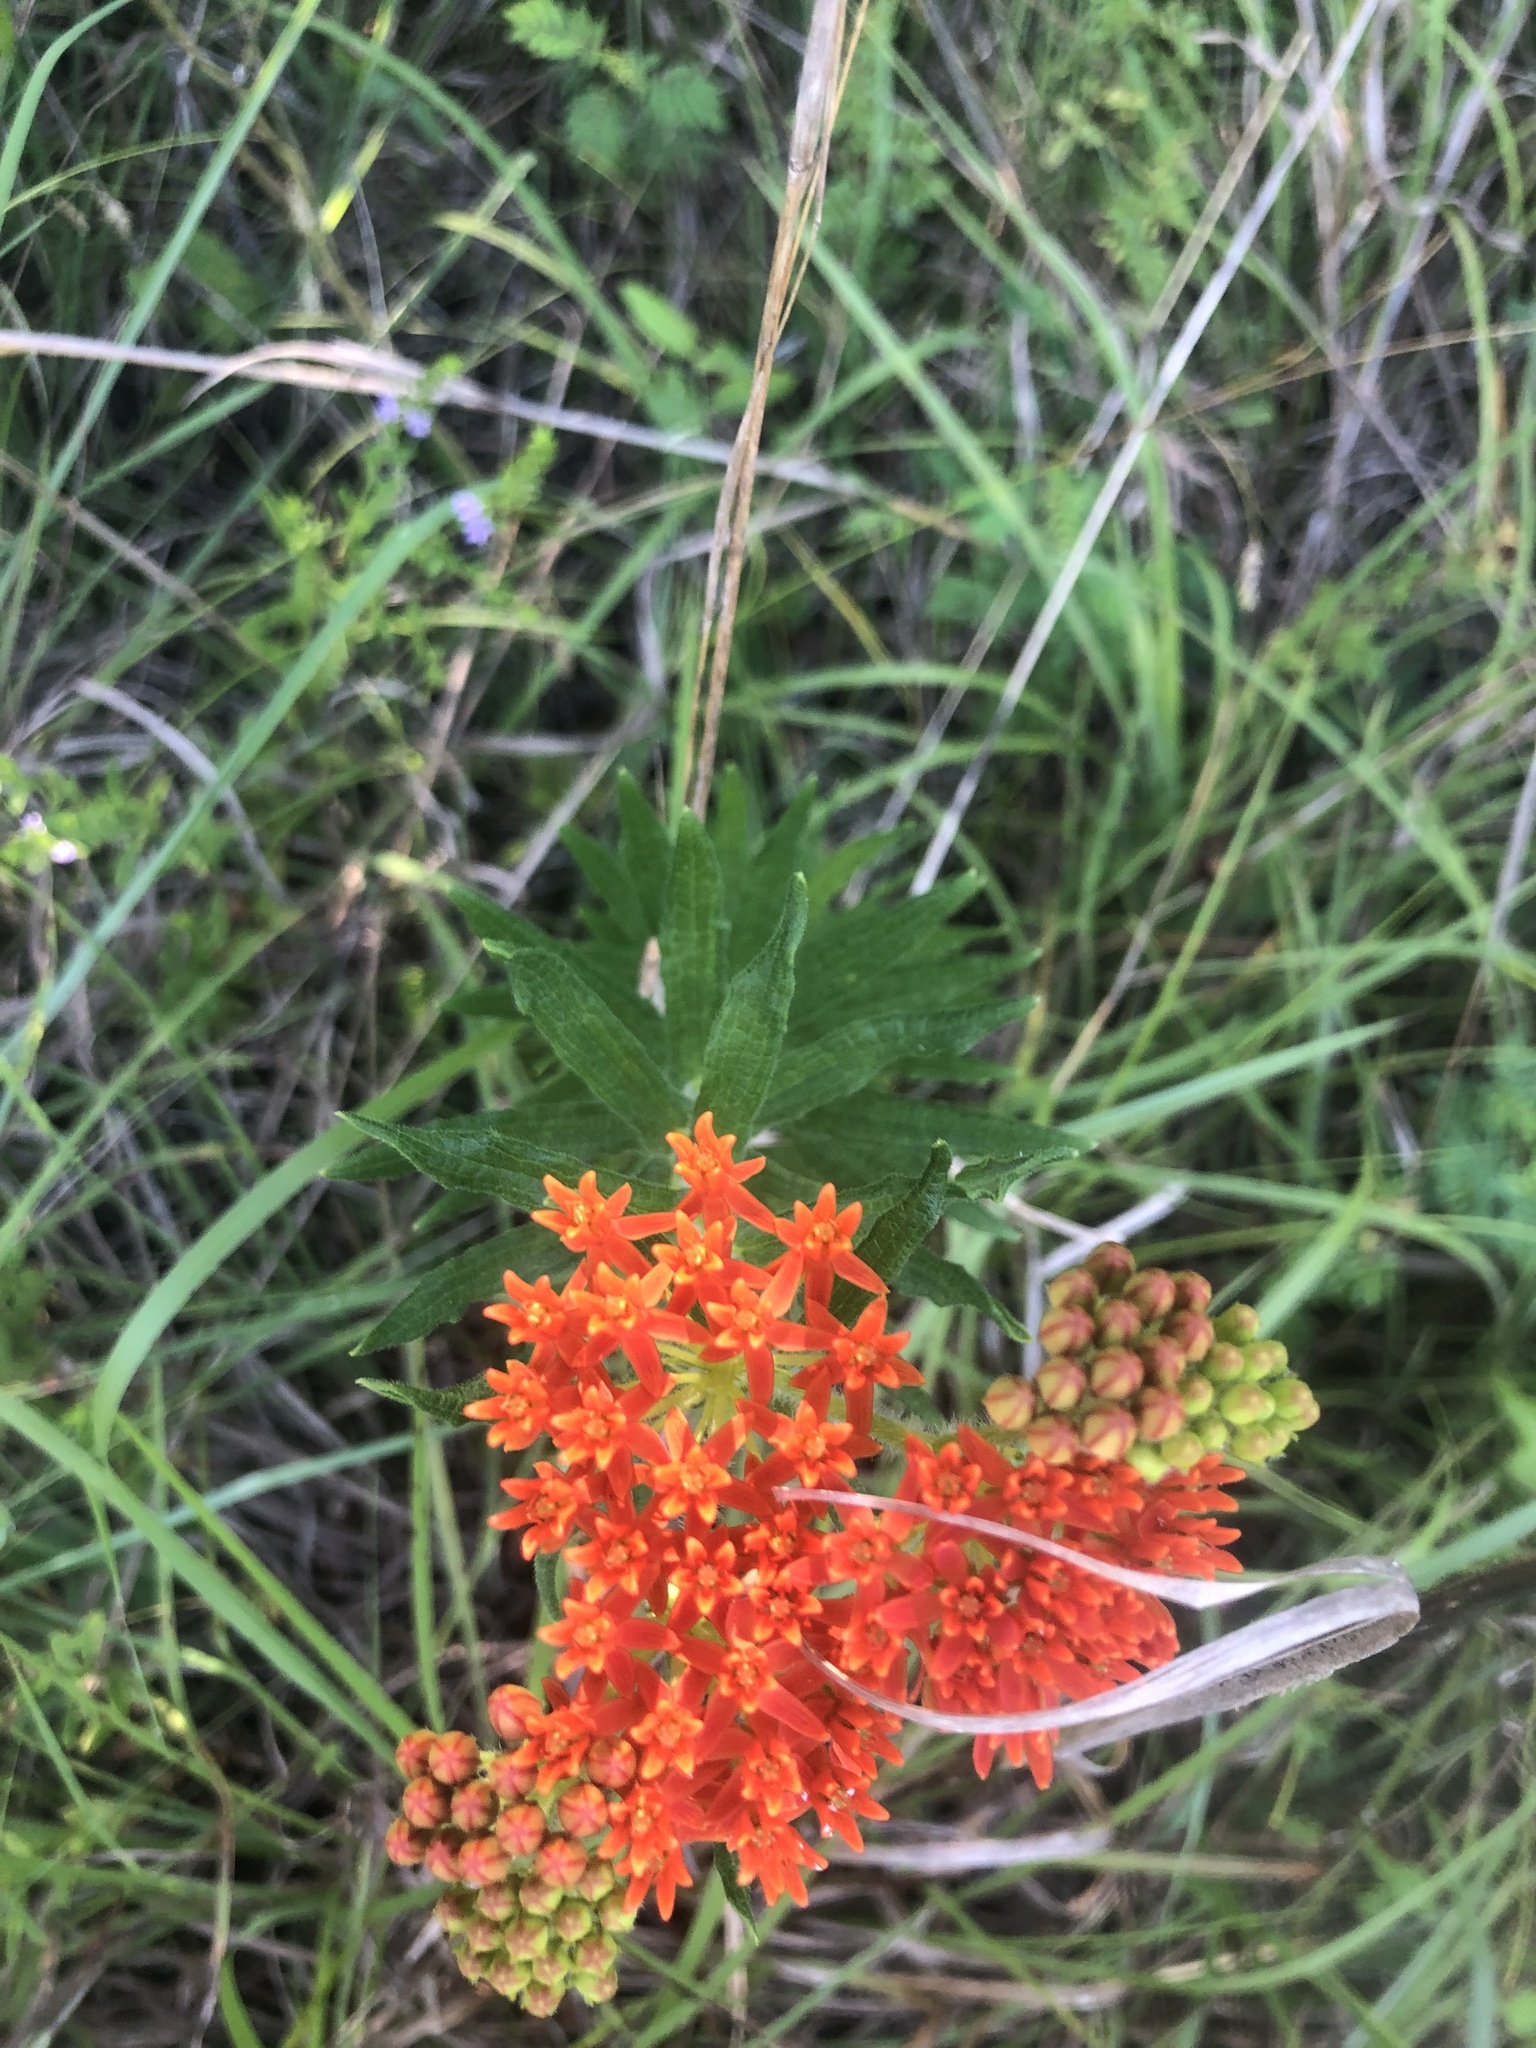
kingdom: Plantae
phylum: Tracheophyta
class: Magnoliopsida
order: Gentianales
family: Apocynaceae
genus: Asclepias
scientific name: Asclepias tuberosa
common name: Butterfly milkweed
